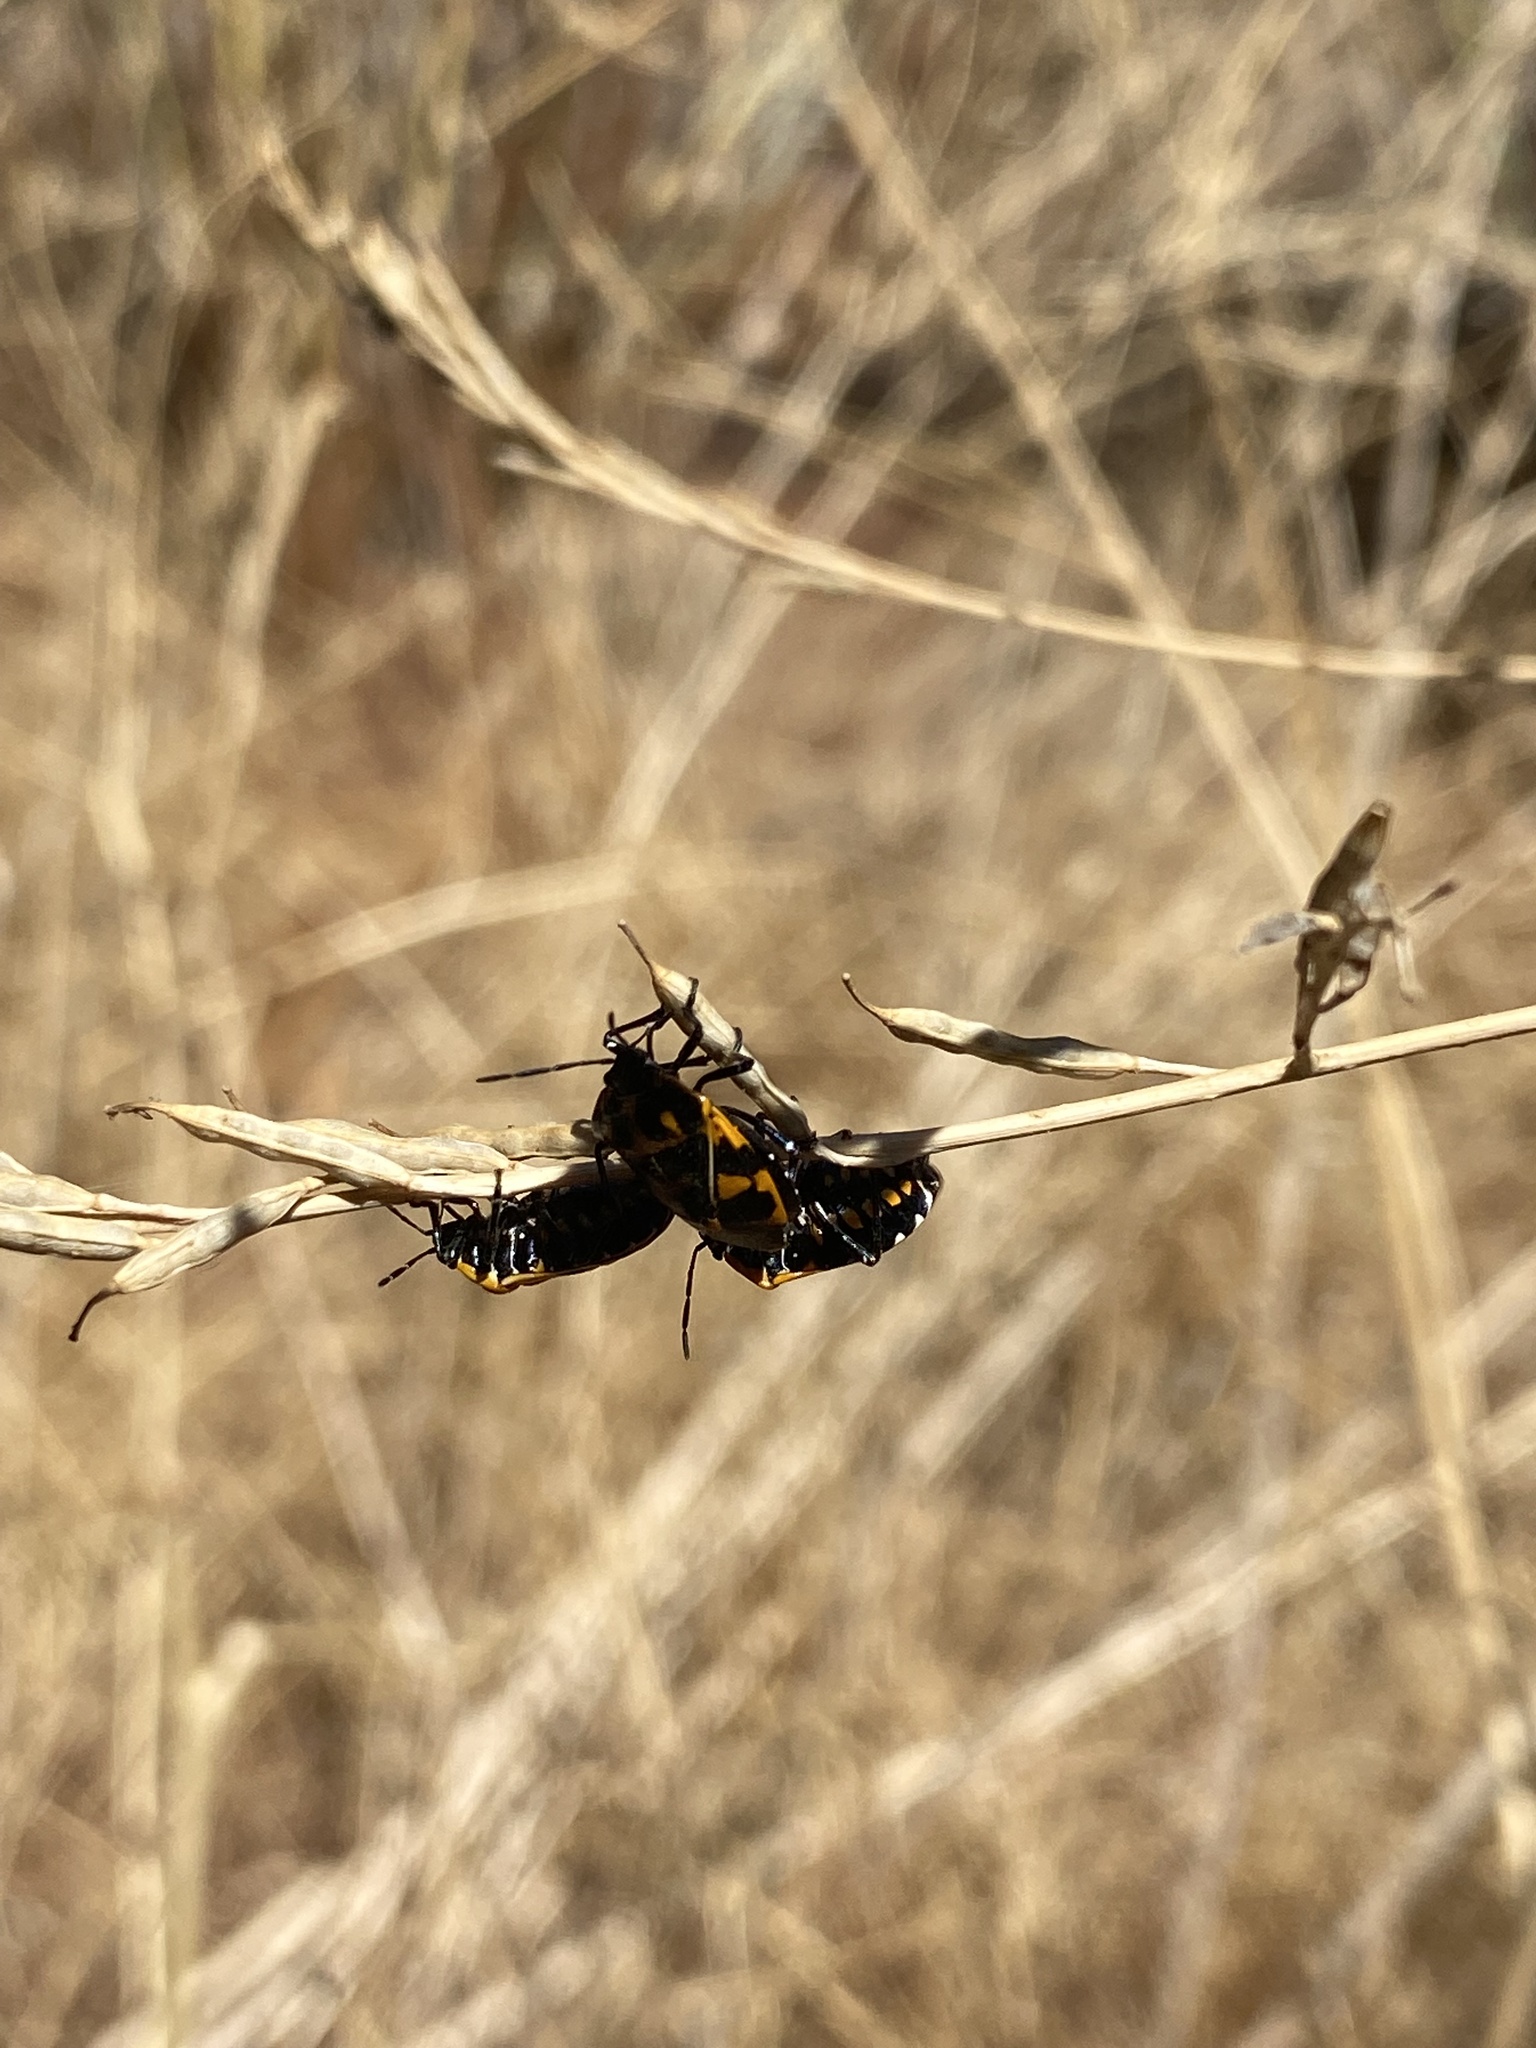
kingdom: Animalia
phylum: Arthropoda
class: Insecta
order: Hemiptera
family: Pentatomidae
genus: Murgantia
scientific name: Murgantia histrionica
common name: Harlequin bug
